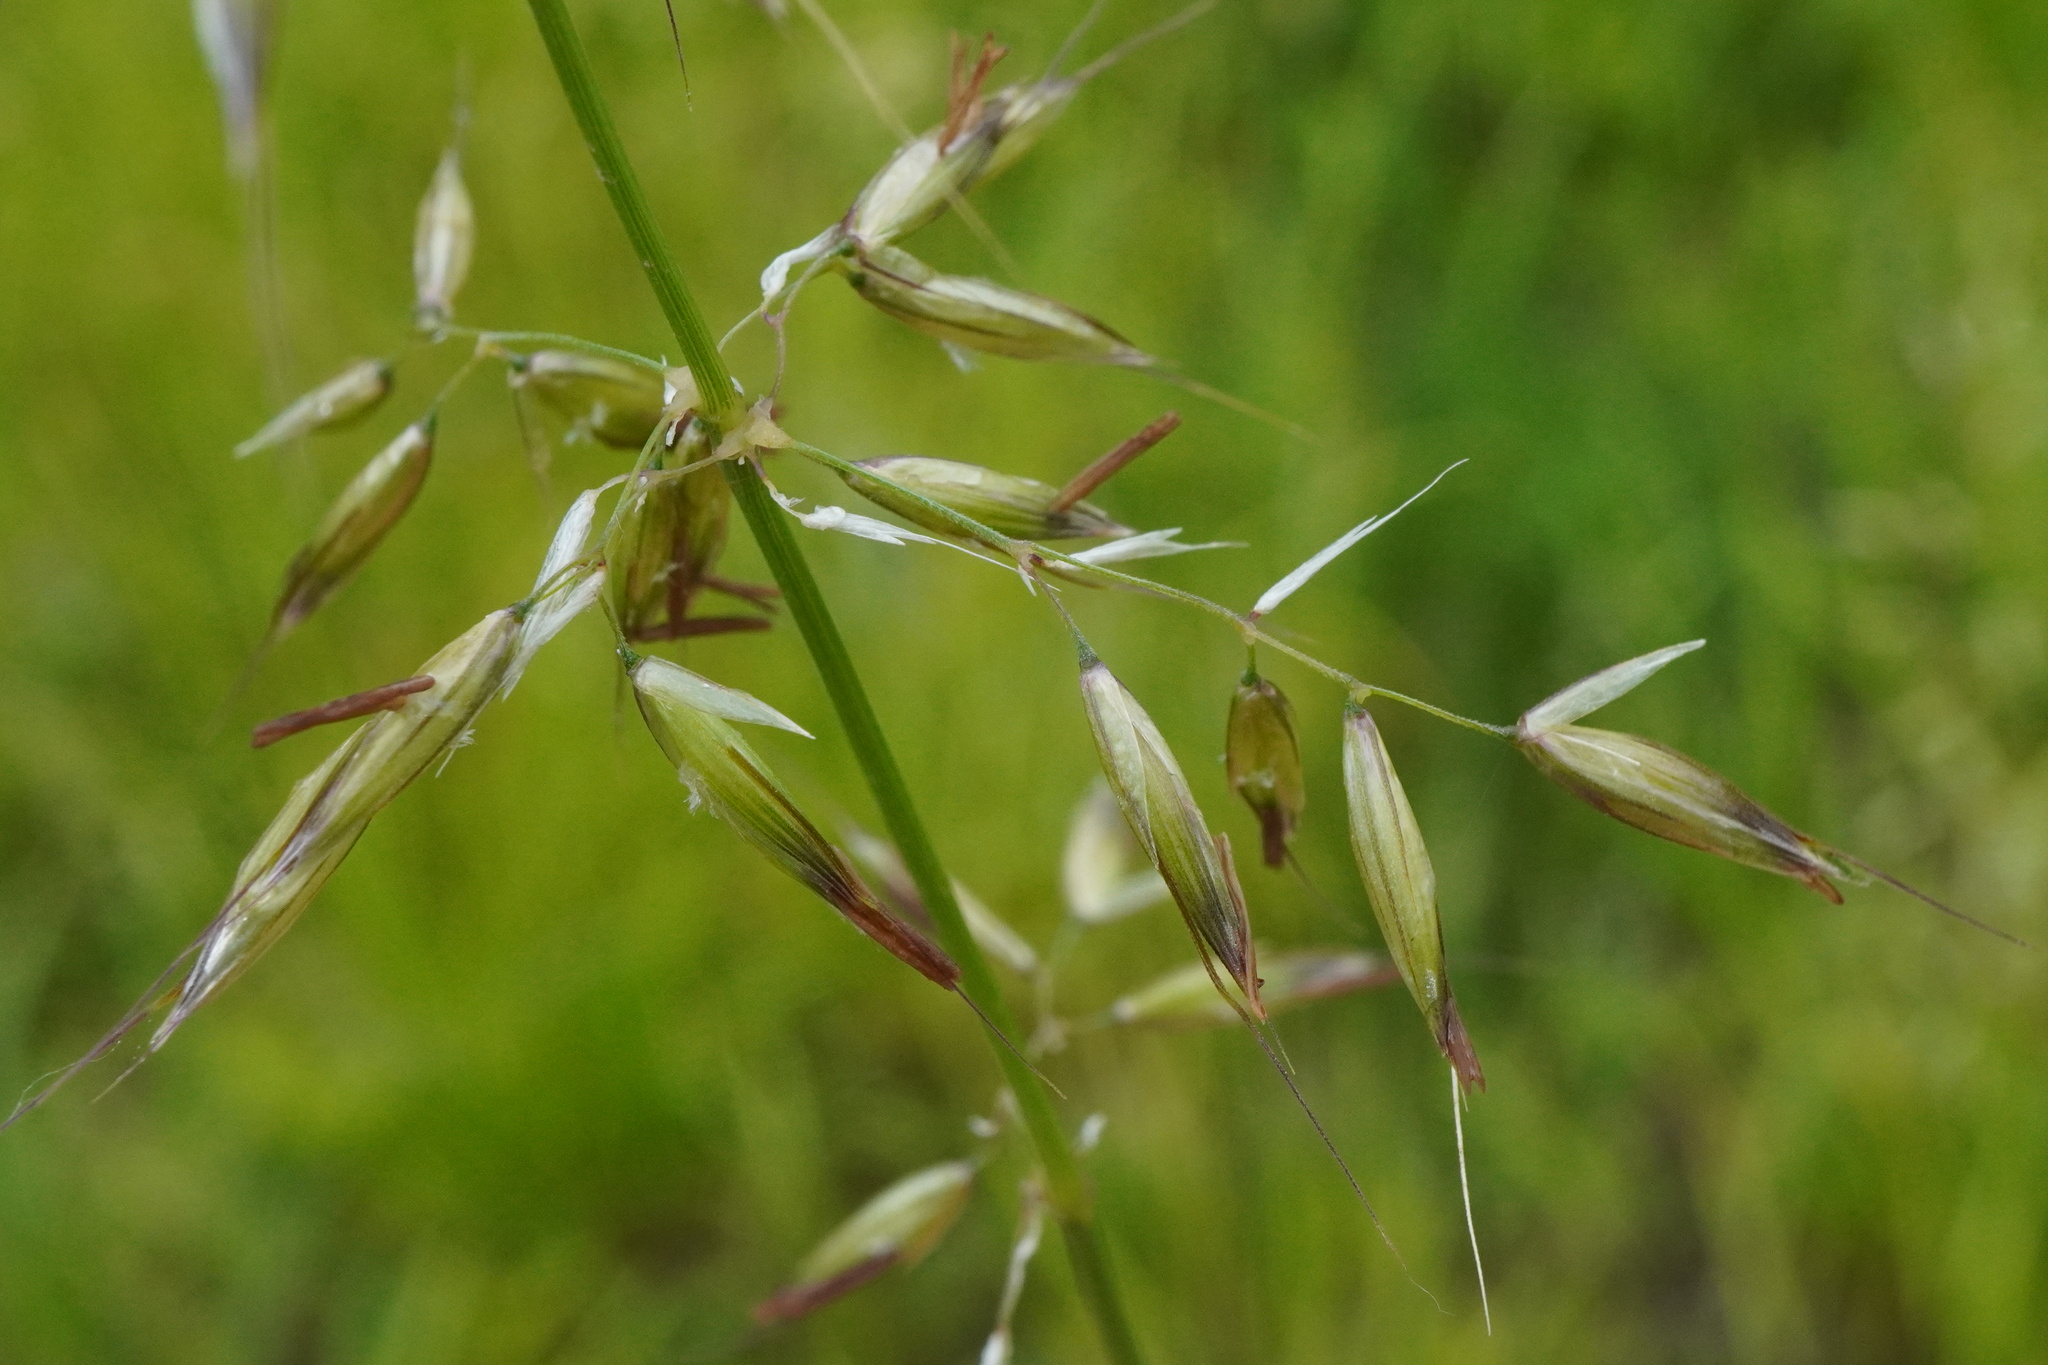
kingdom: Plantae
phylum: Tracheophyta
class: Liliopsida
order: Poales
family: Poaceae
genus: Arrhenatherum
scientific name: Arrhenatherum elatius
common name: Tall oatgrass
